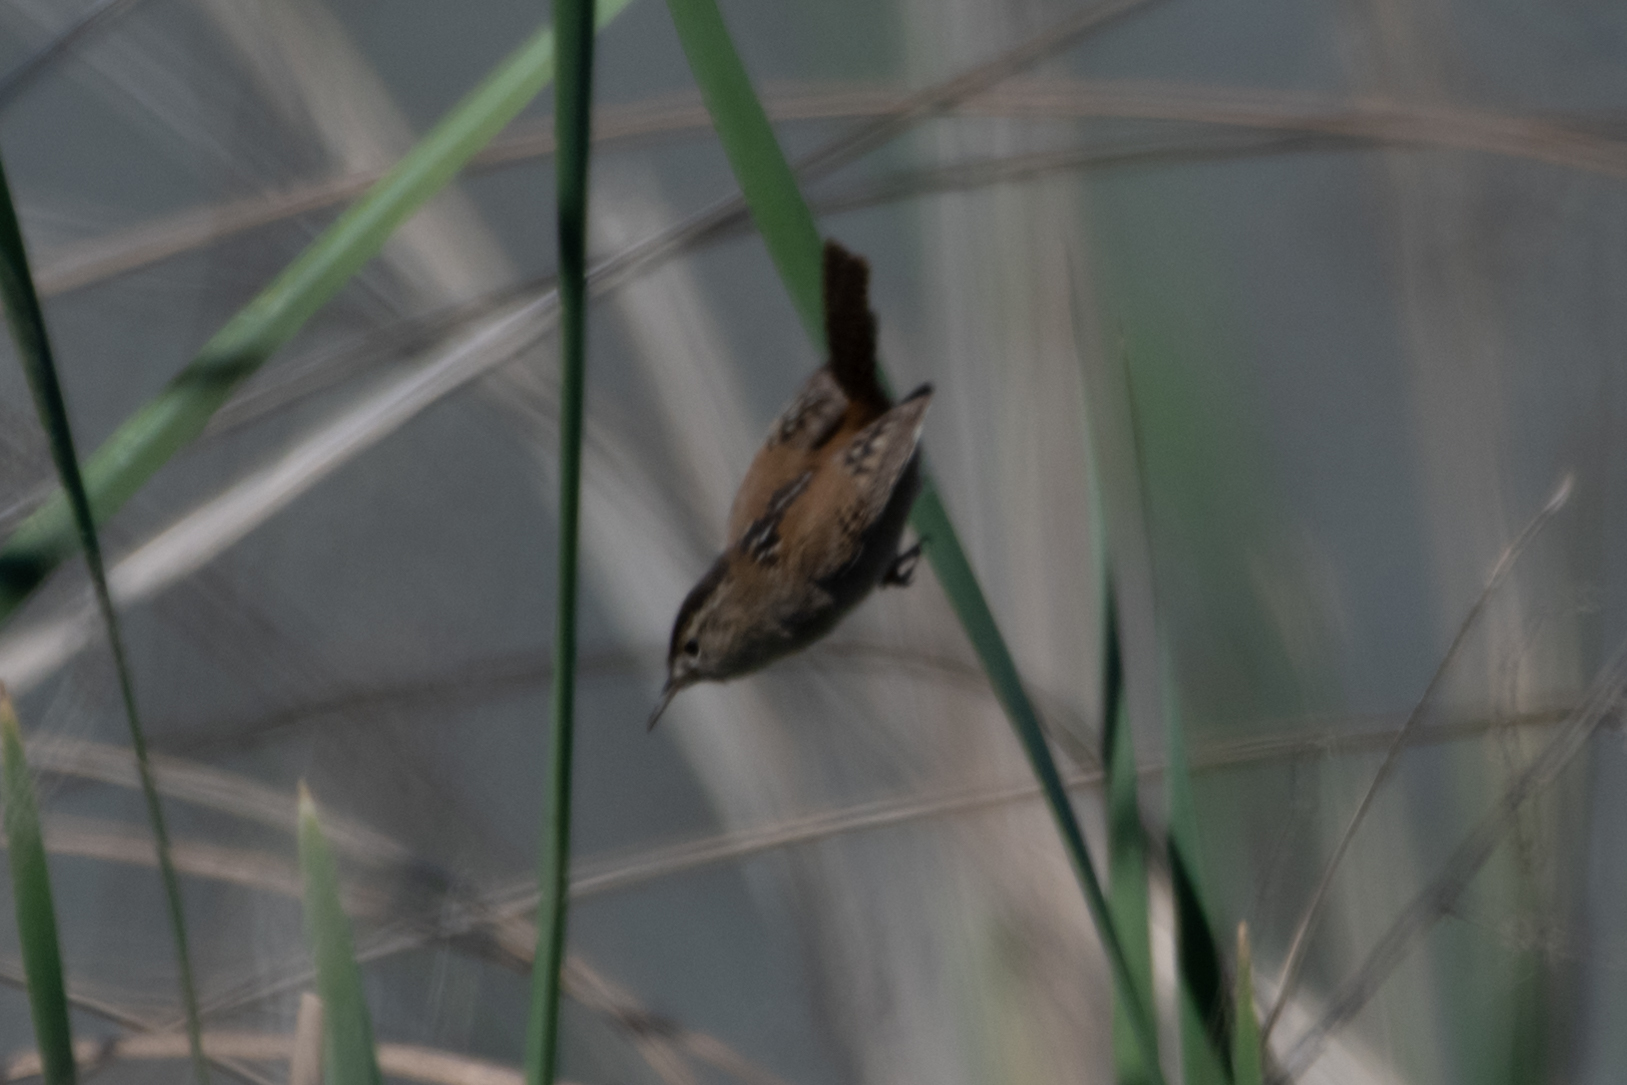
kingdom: Animalia
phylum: Chordata
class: Aves
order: Passeriformes
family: Troglodytidae
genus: Cistothorus
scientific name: Cistothorus palustris
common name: Marsh wren
